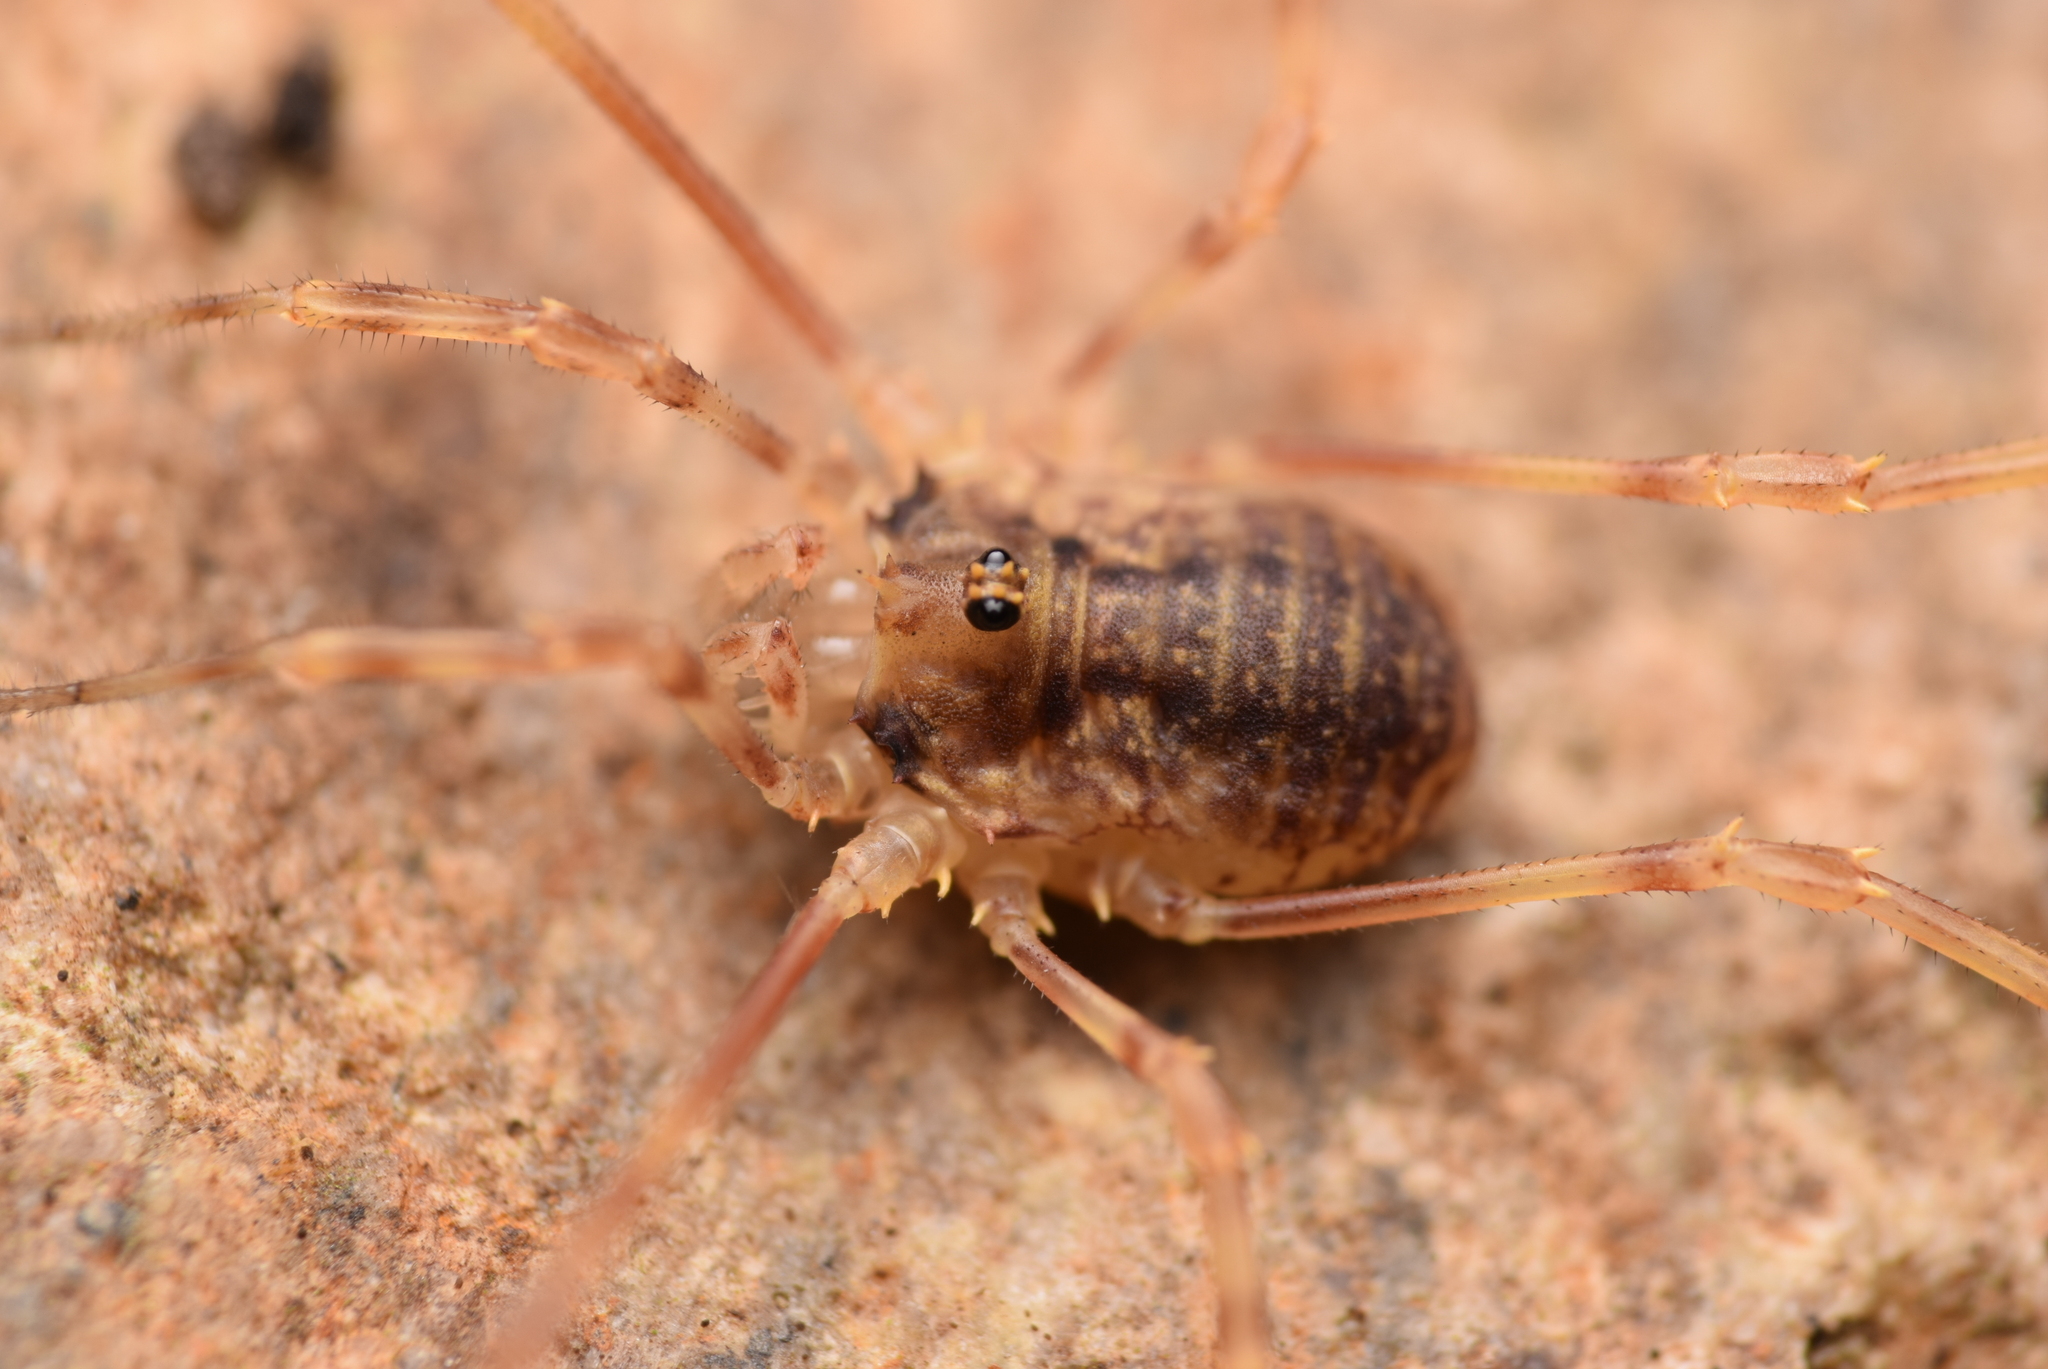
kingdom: Animalia
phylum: Arthropoda
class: Arachnida
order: Opiliones
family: Phalangiidae
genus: Lophopilio
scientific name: Lophopilio palpinalis
